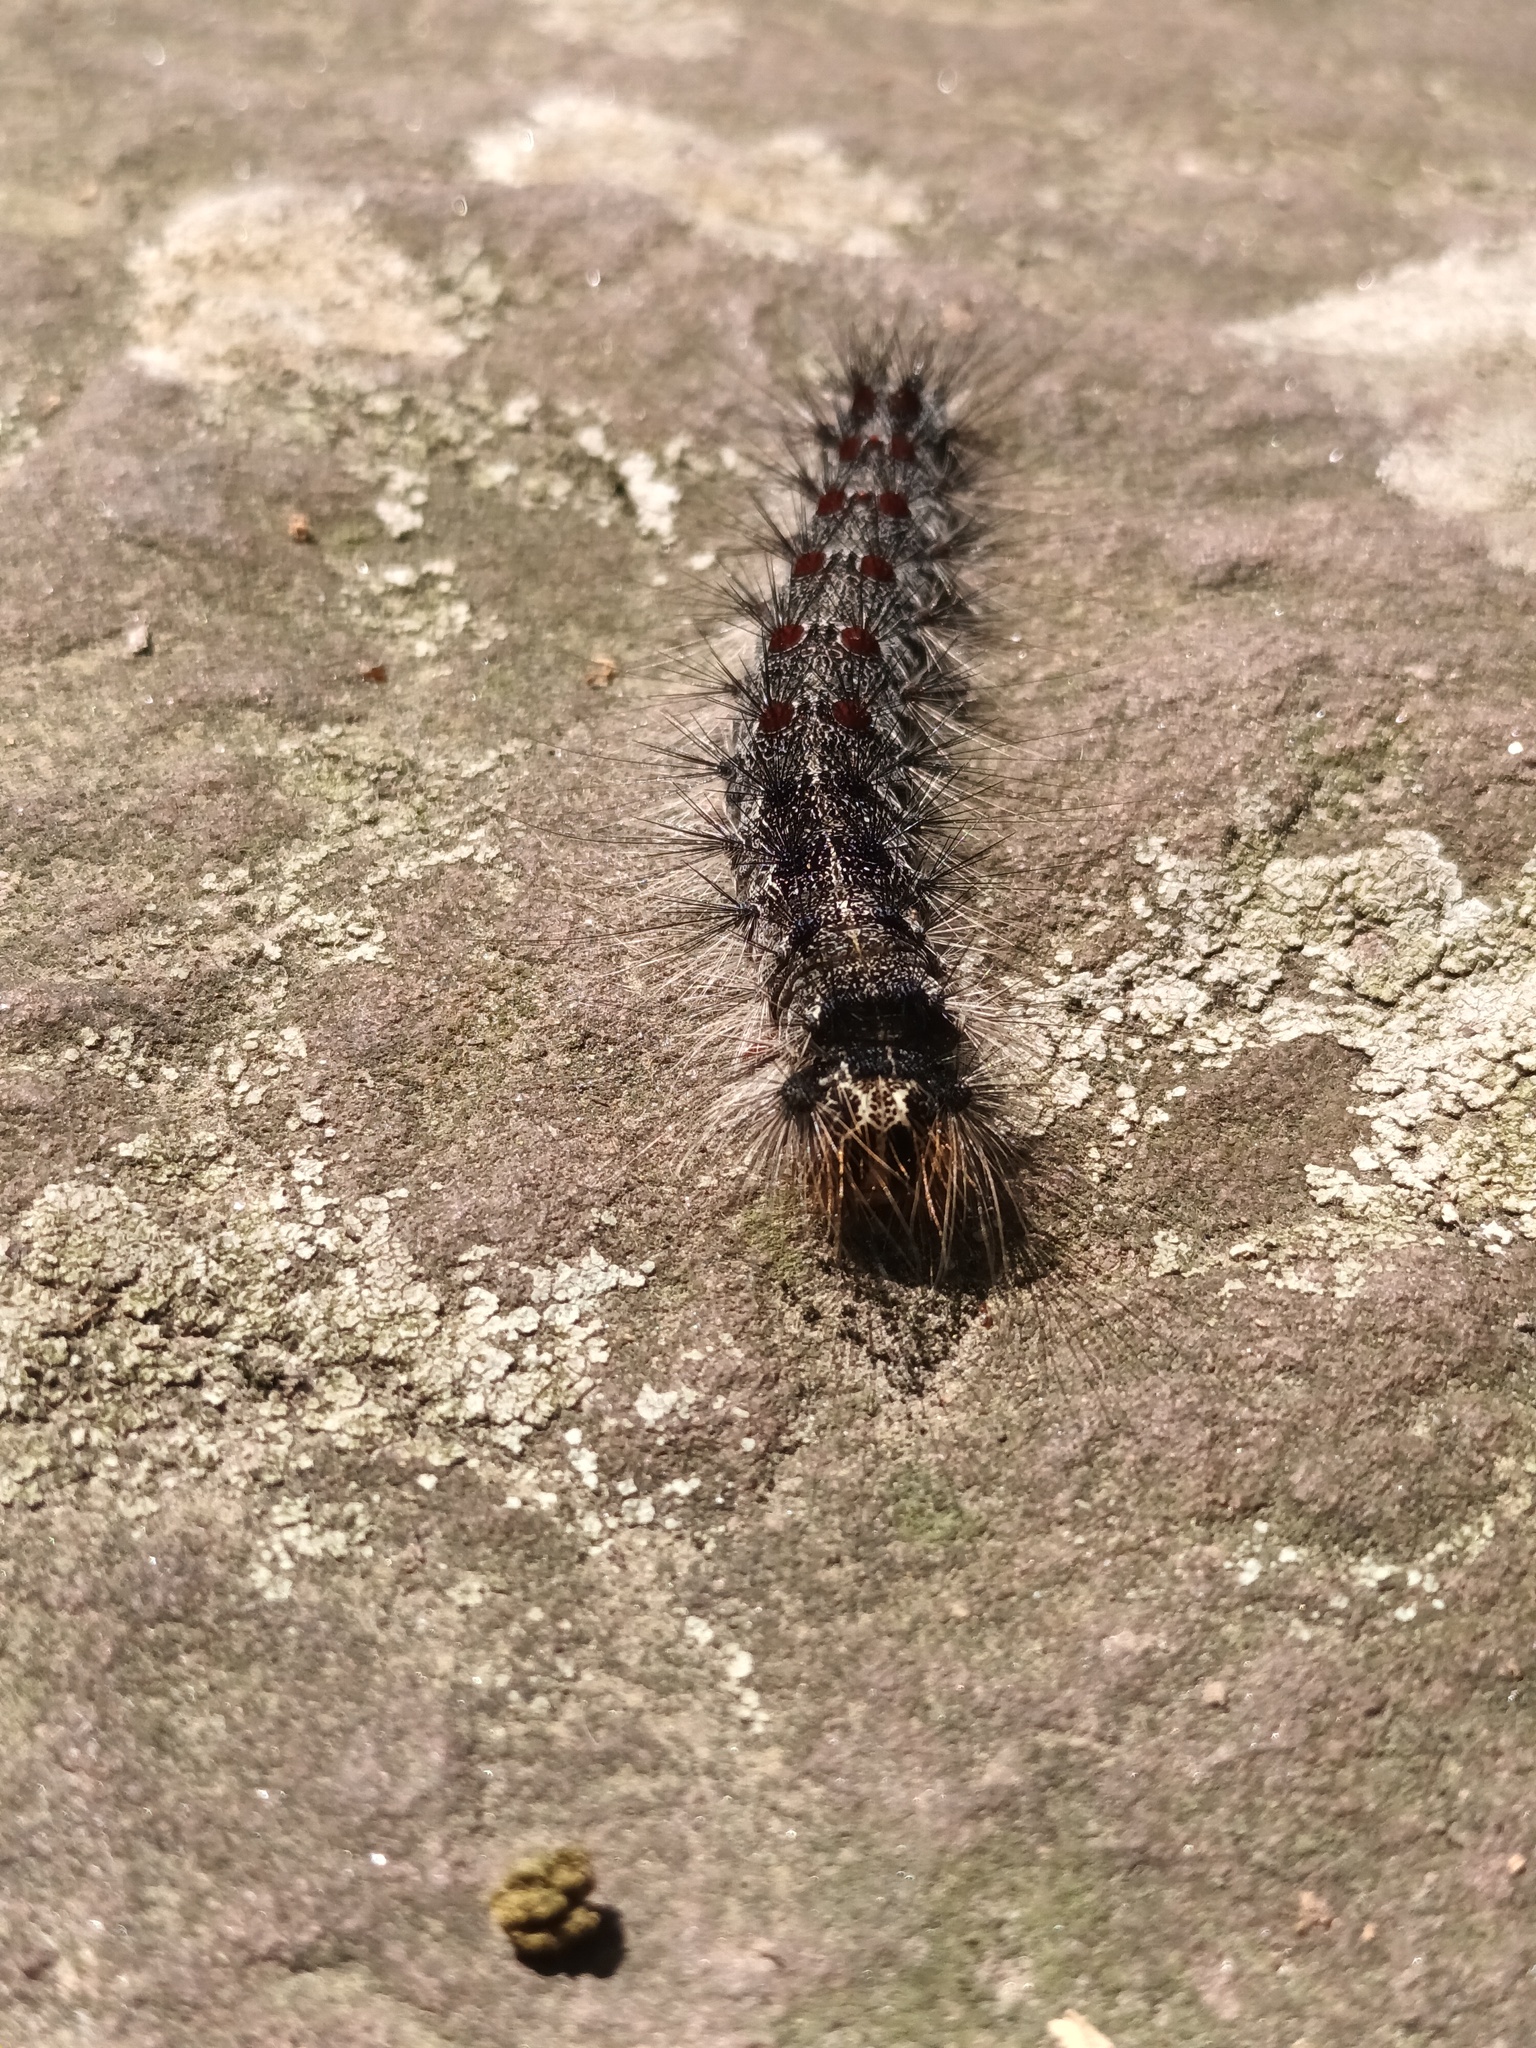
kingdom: Animalia
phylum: Arthropoda
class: Insecta
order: Lepidoptera
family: Erebidae
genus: Lymantria
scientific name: Lymantria dispar
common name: Gypsy moth
